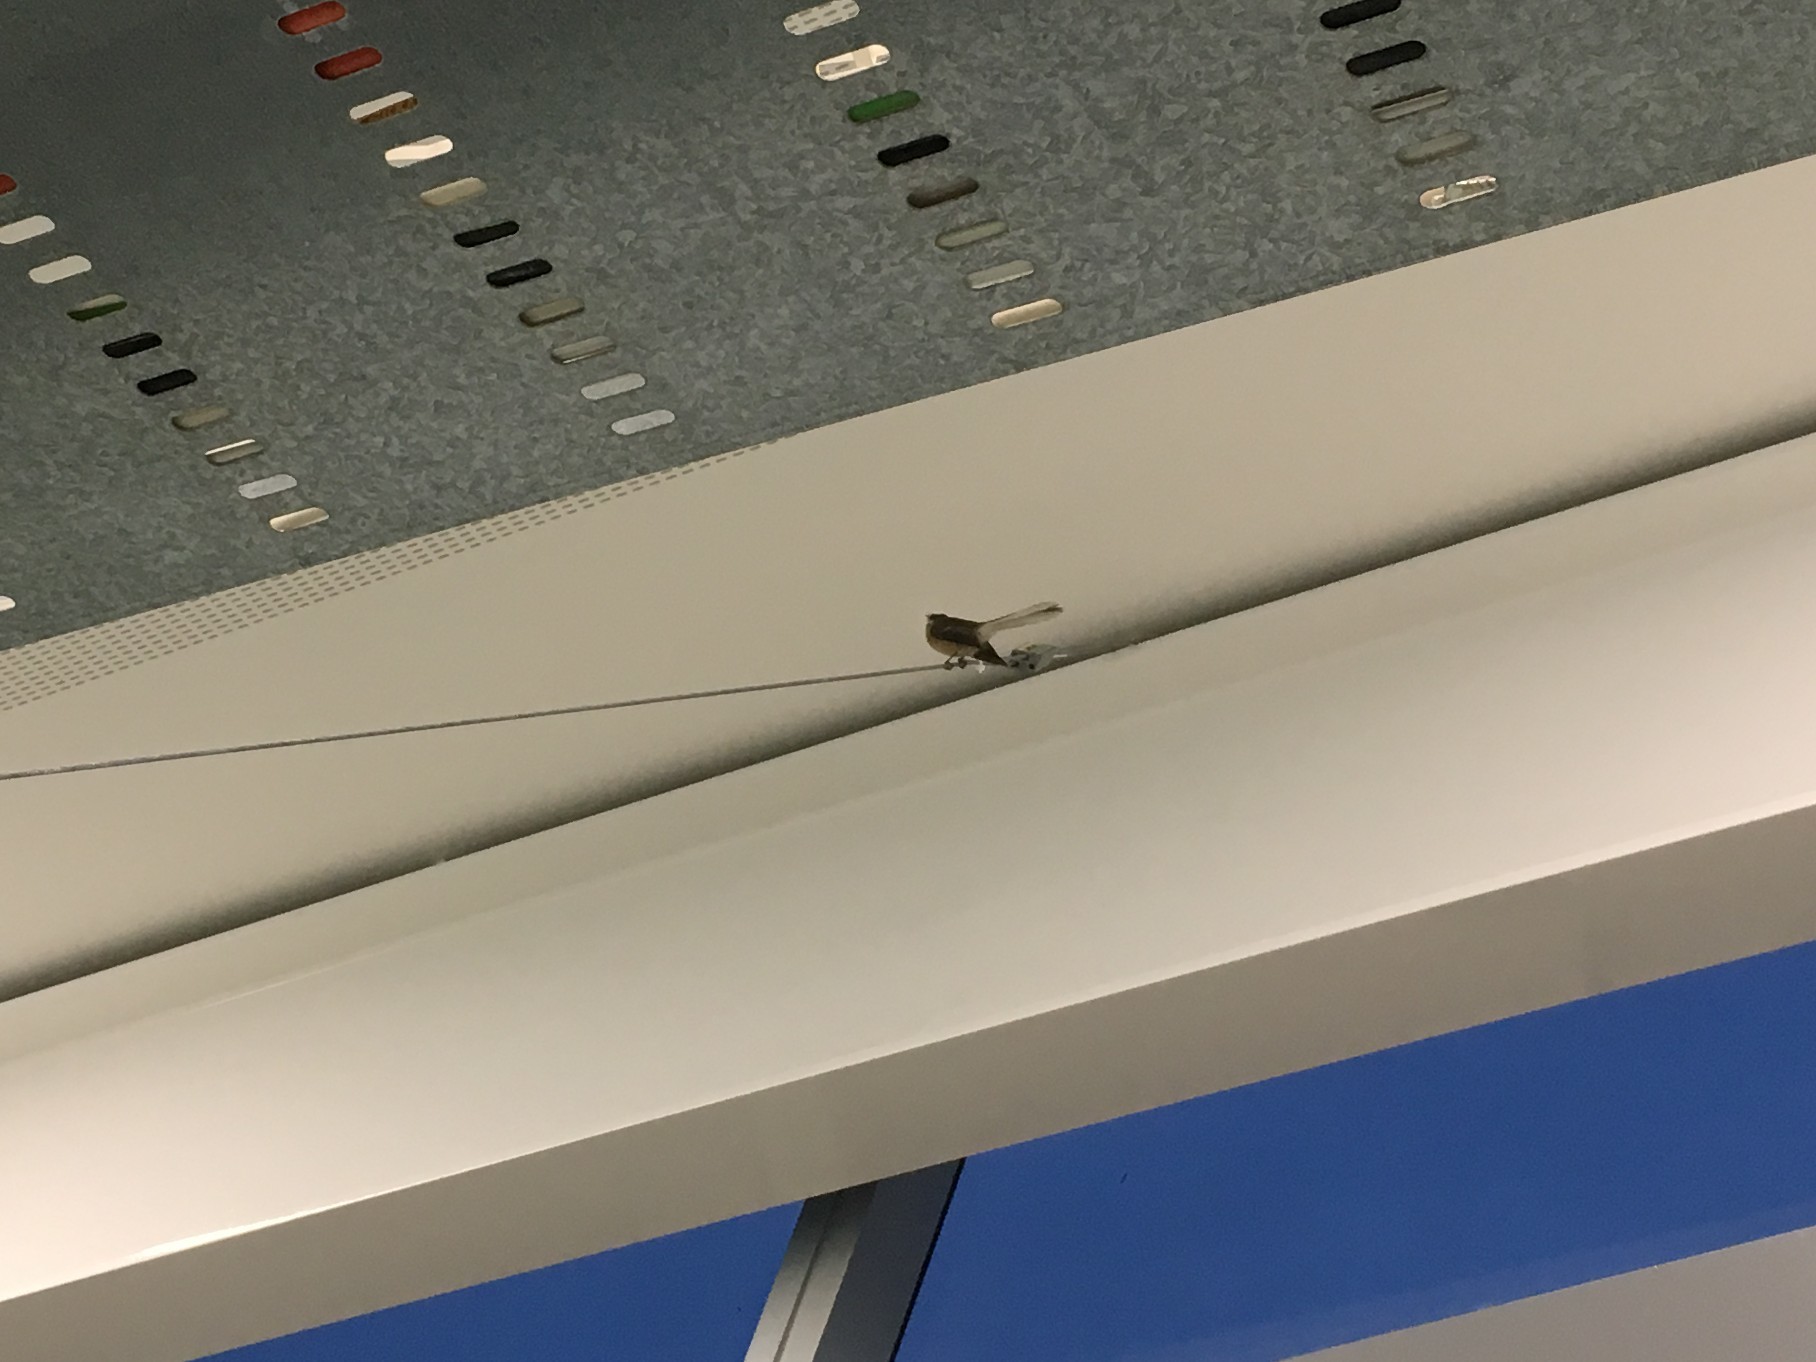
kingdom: Animalia
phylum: Chordata
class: Aves
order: Passeriformes
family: Rhipiduridae
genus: Rhipidura
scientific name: Rhipidura fuliginosa
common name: New zealand fantail
